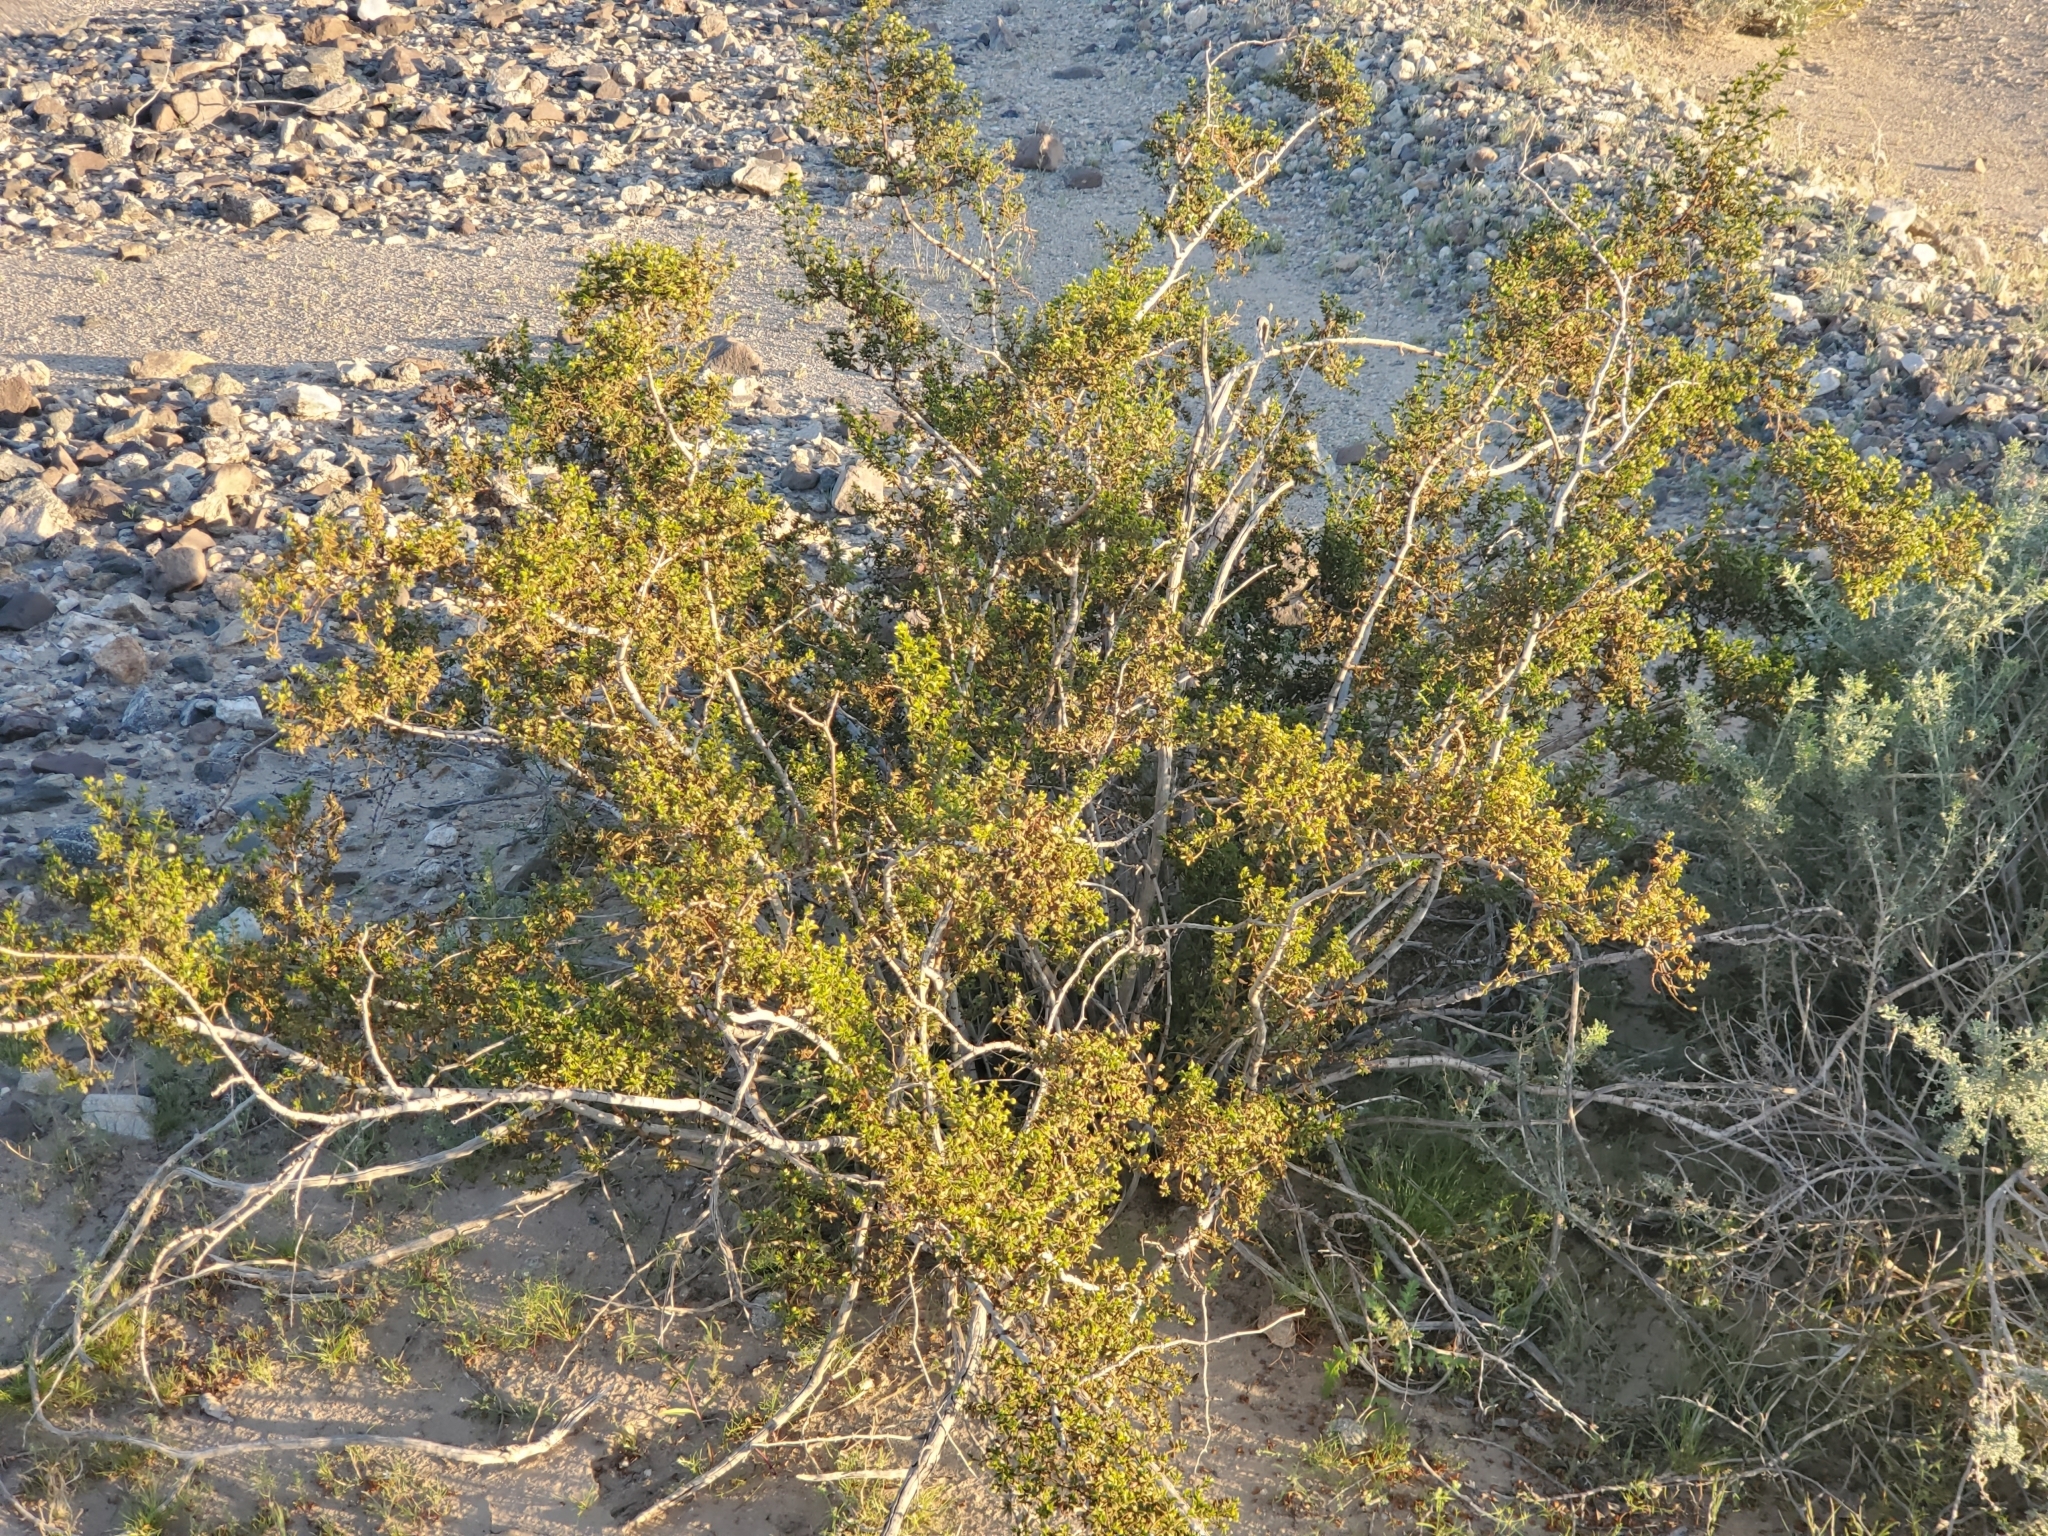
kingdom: Plantae
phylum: Tracheophyta
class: Magnoliopsida
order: Zygophyllales
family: Zygophyllaceae
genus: Larrea
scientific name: Larrea tridentata
